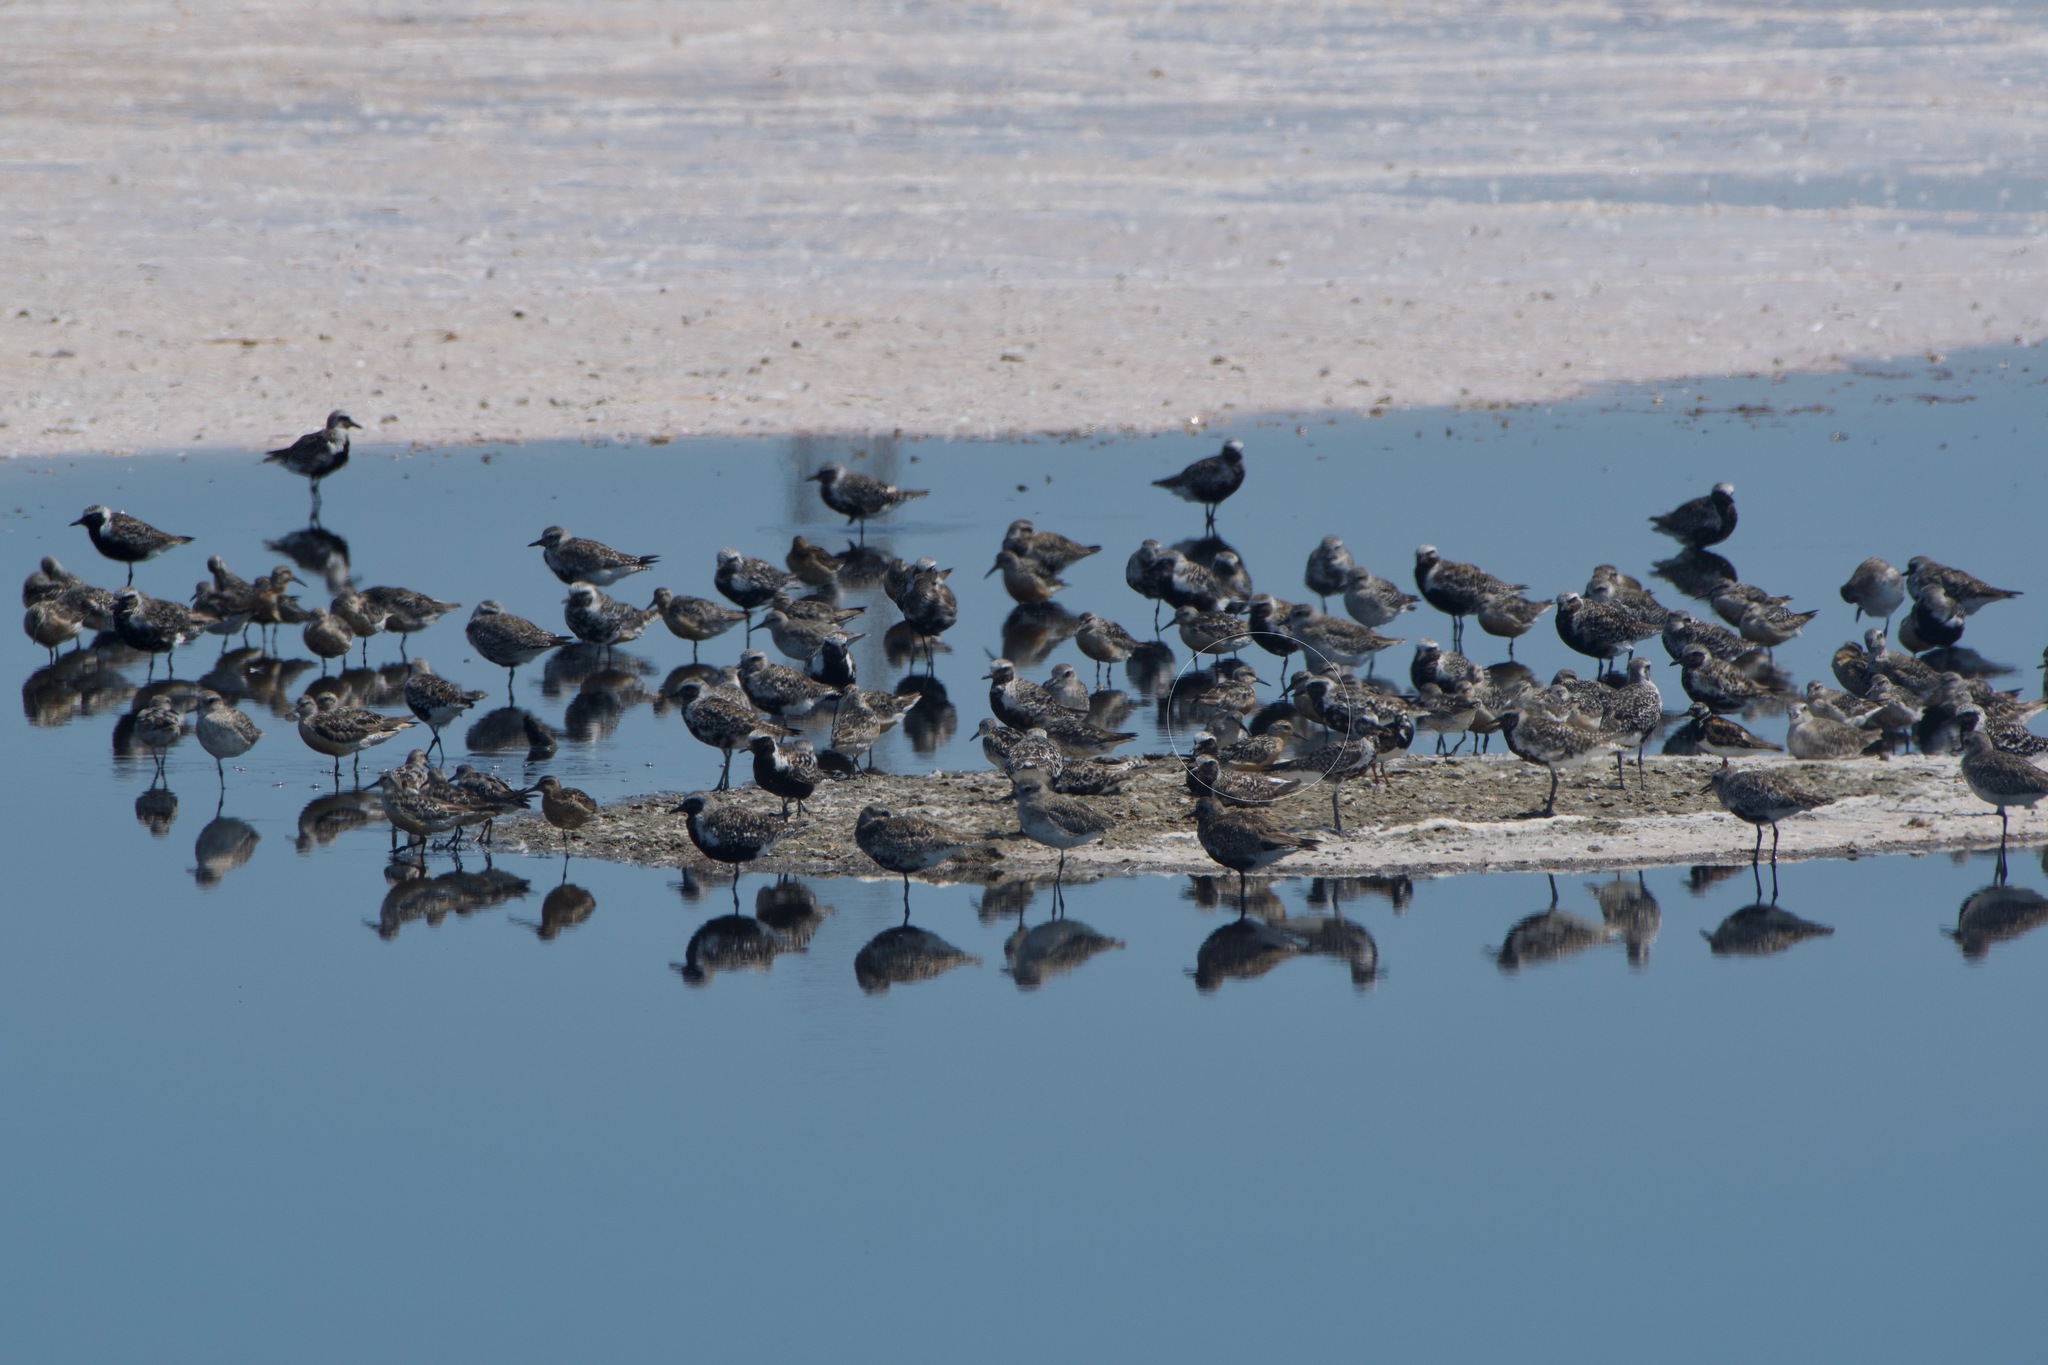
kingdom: Animalia
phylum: Chordata
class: Aves
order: Charadriiformes
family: Scolopacidae
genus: Calidris
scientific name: Calidris canutus
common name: Red knot
